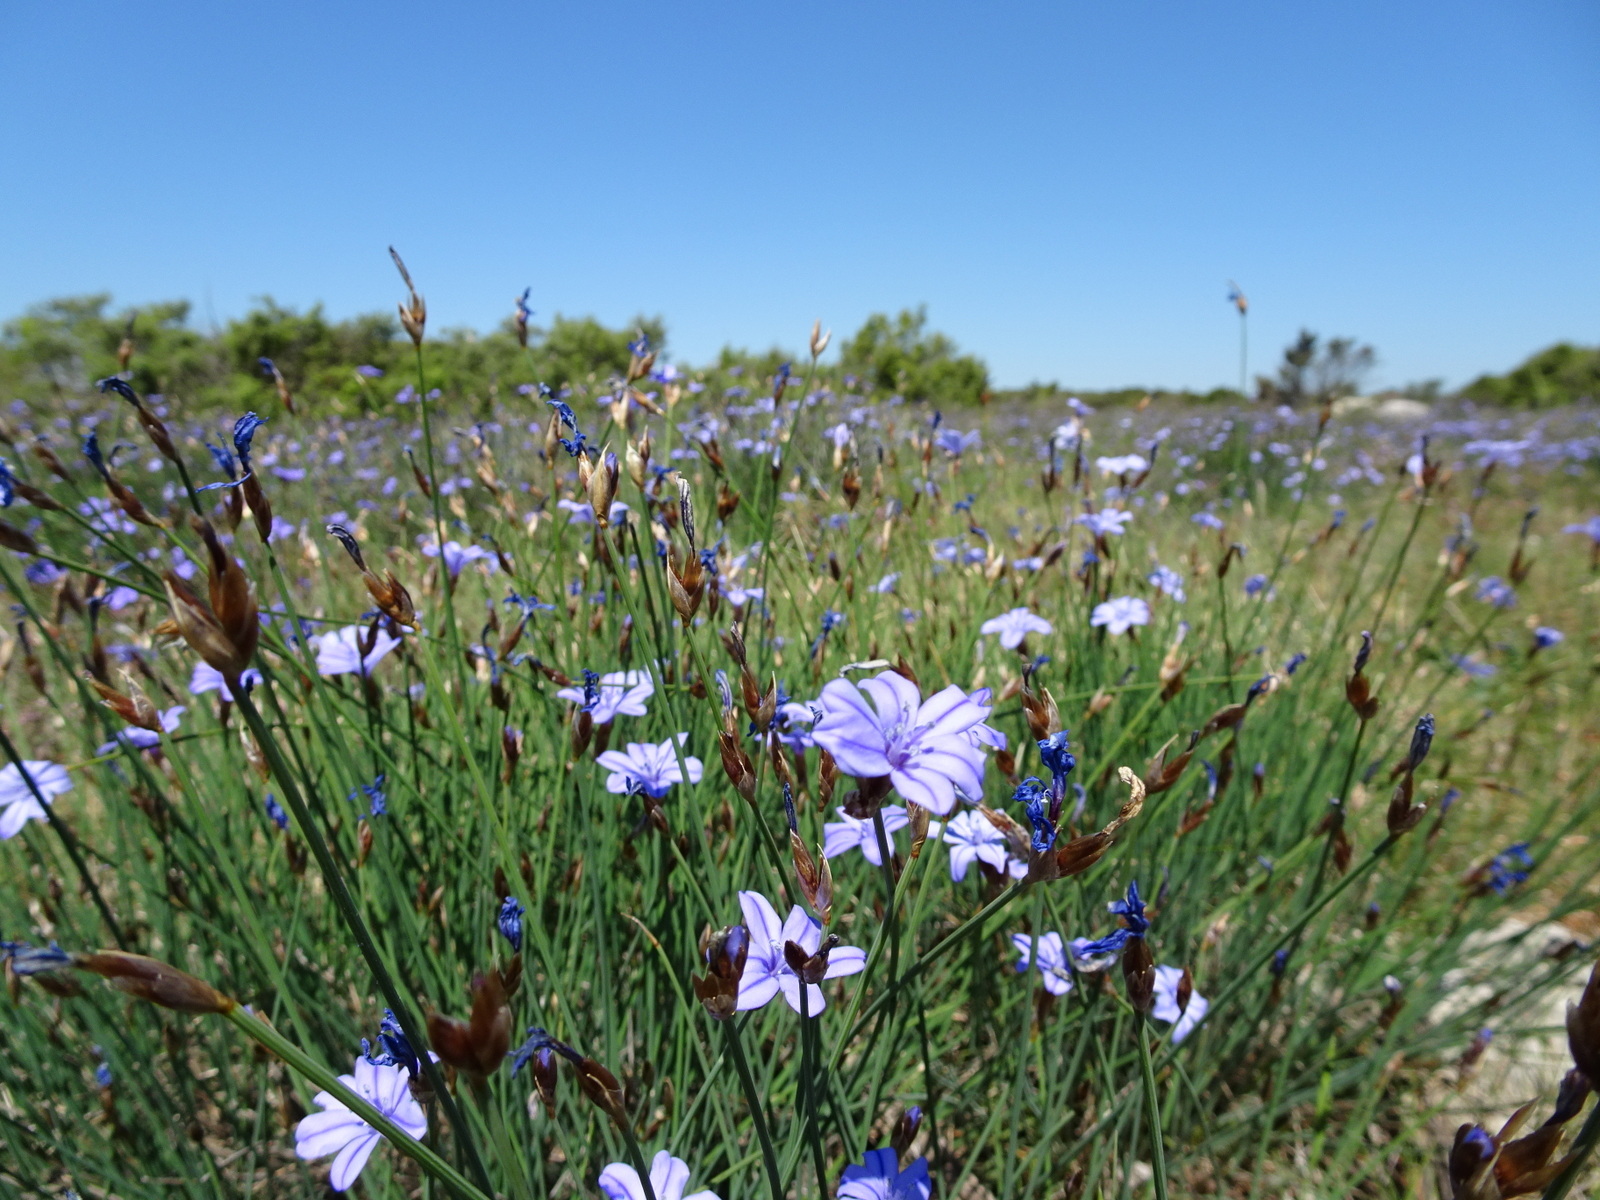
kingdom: Plantae
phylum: Tracheophyta
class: Liliopsida
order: Asparagales
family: Asparagaceae
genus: Aphyllanthes
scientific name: Aphyllanthes monspeliensis
